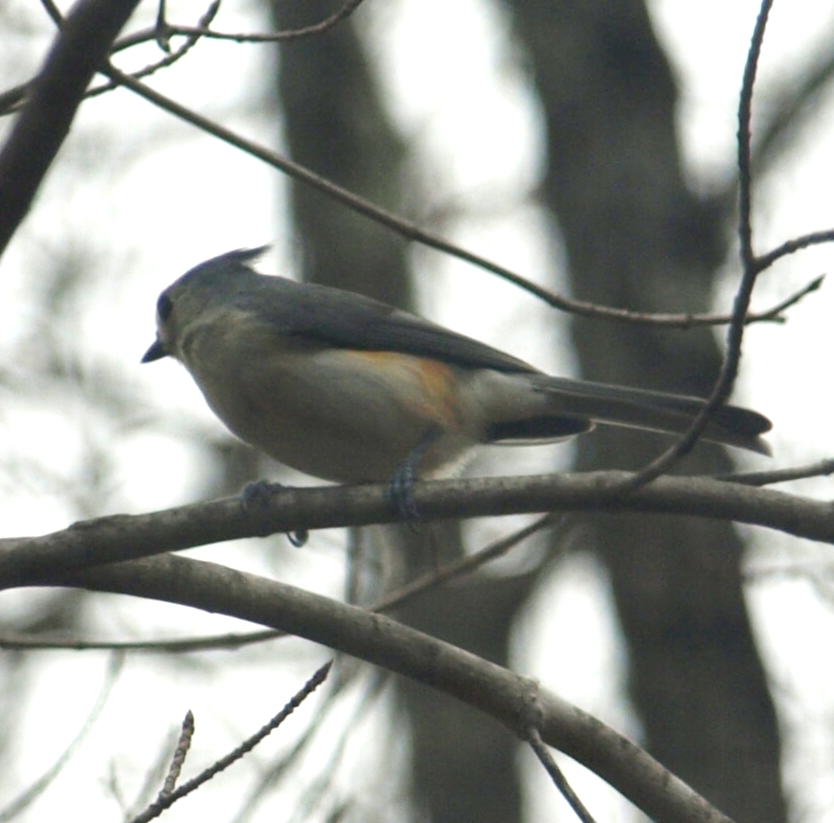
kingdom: Animalia
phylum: Chordata
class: Aves
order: Passeriformes
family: Paridae
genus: Baeolophus
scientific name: Baeolophus bicolor
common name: Tufted titmouse
